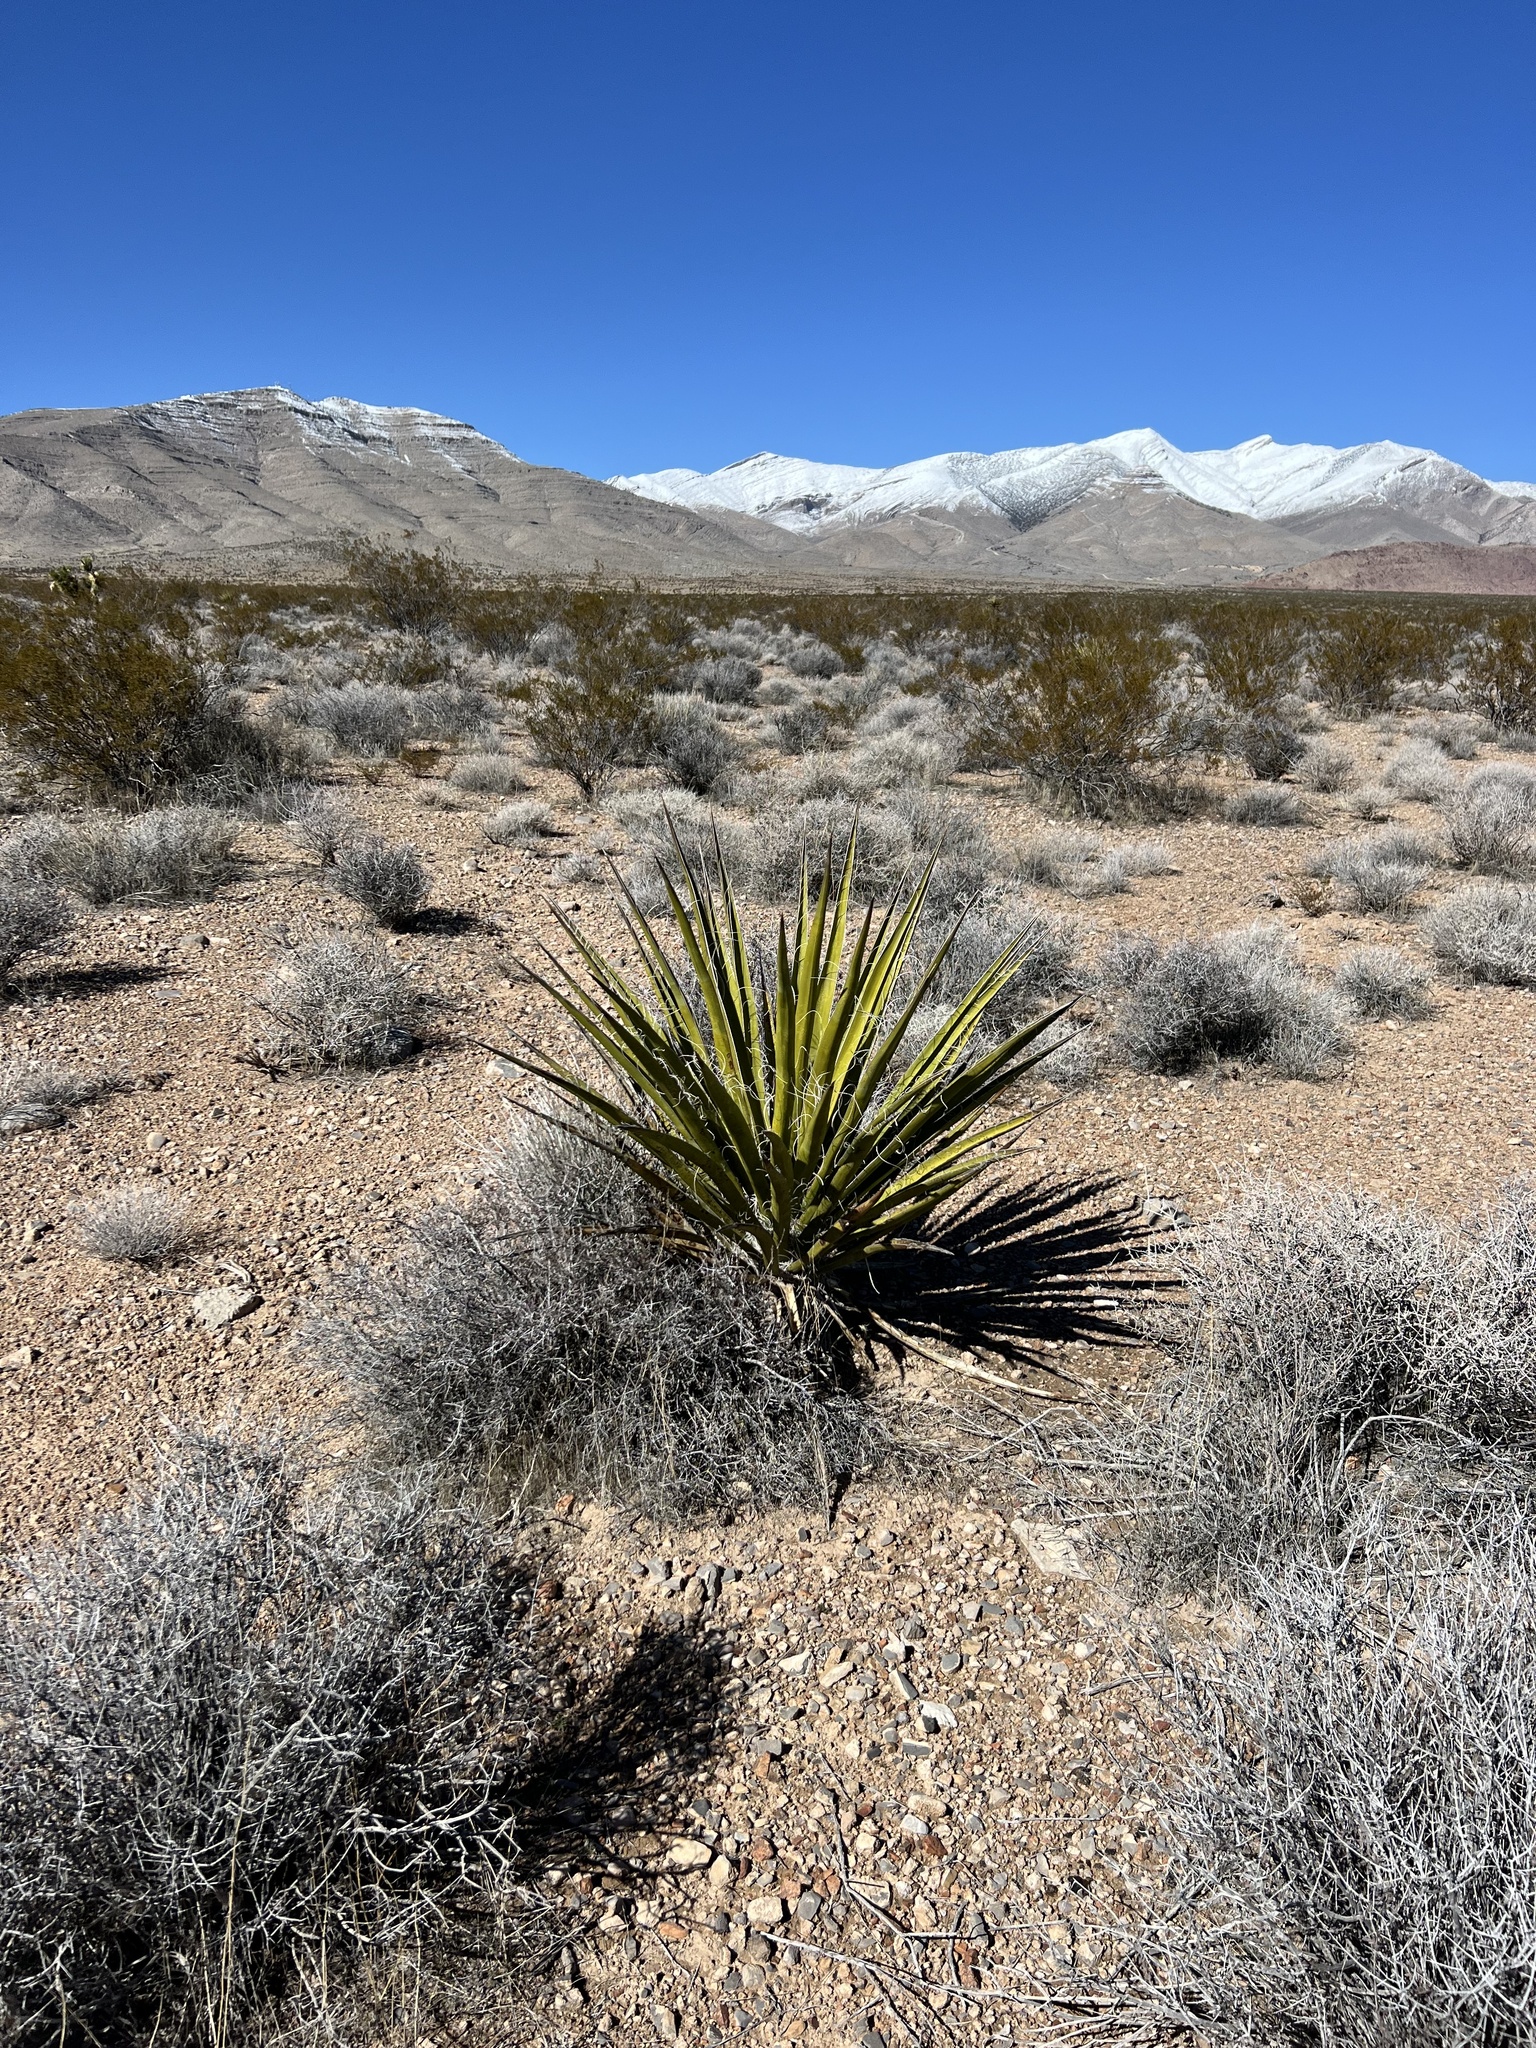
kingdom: Plantae
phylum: Tracheophyta
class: Liliopsida
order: Asparagales
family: Asparagaceae
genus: Yucca
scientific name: Yucca schidigera
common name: Mojave yucca
